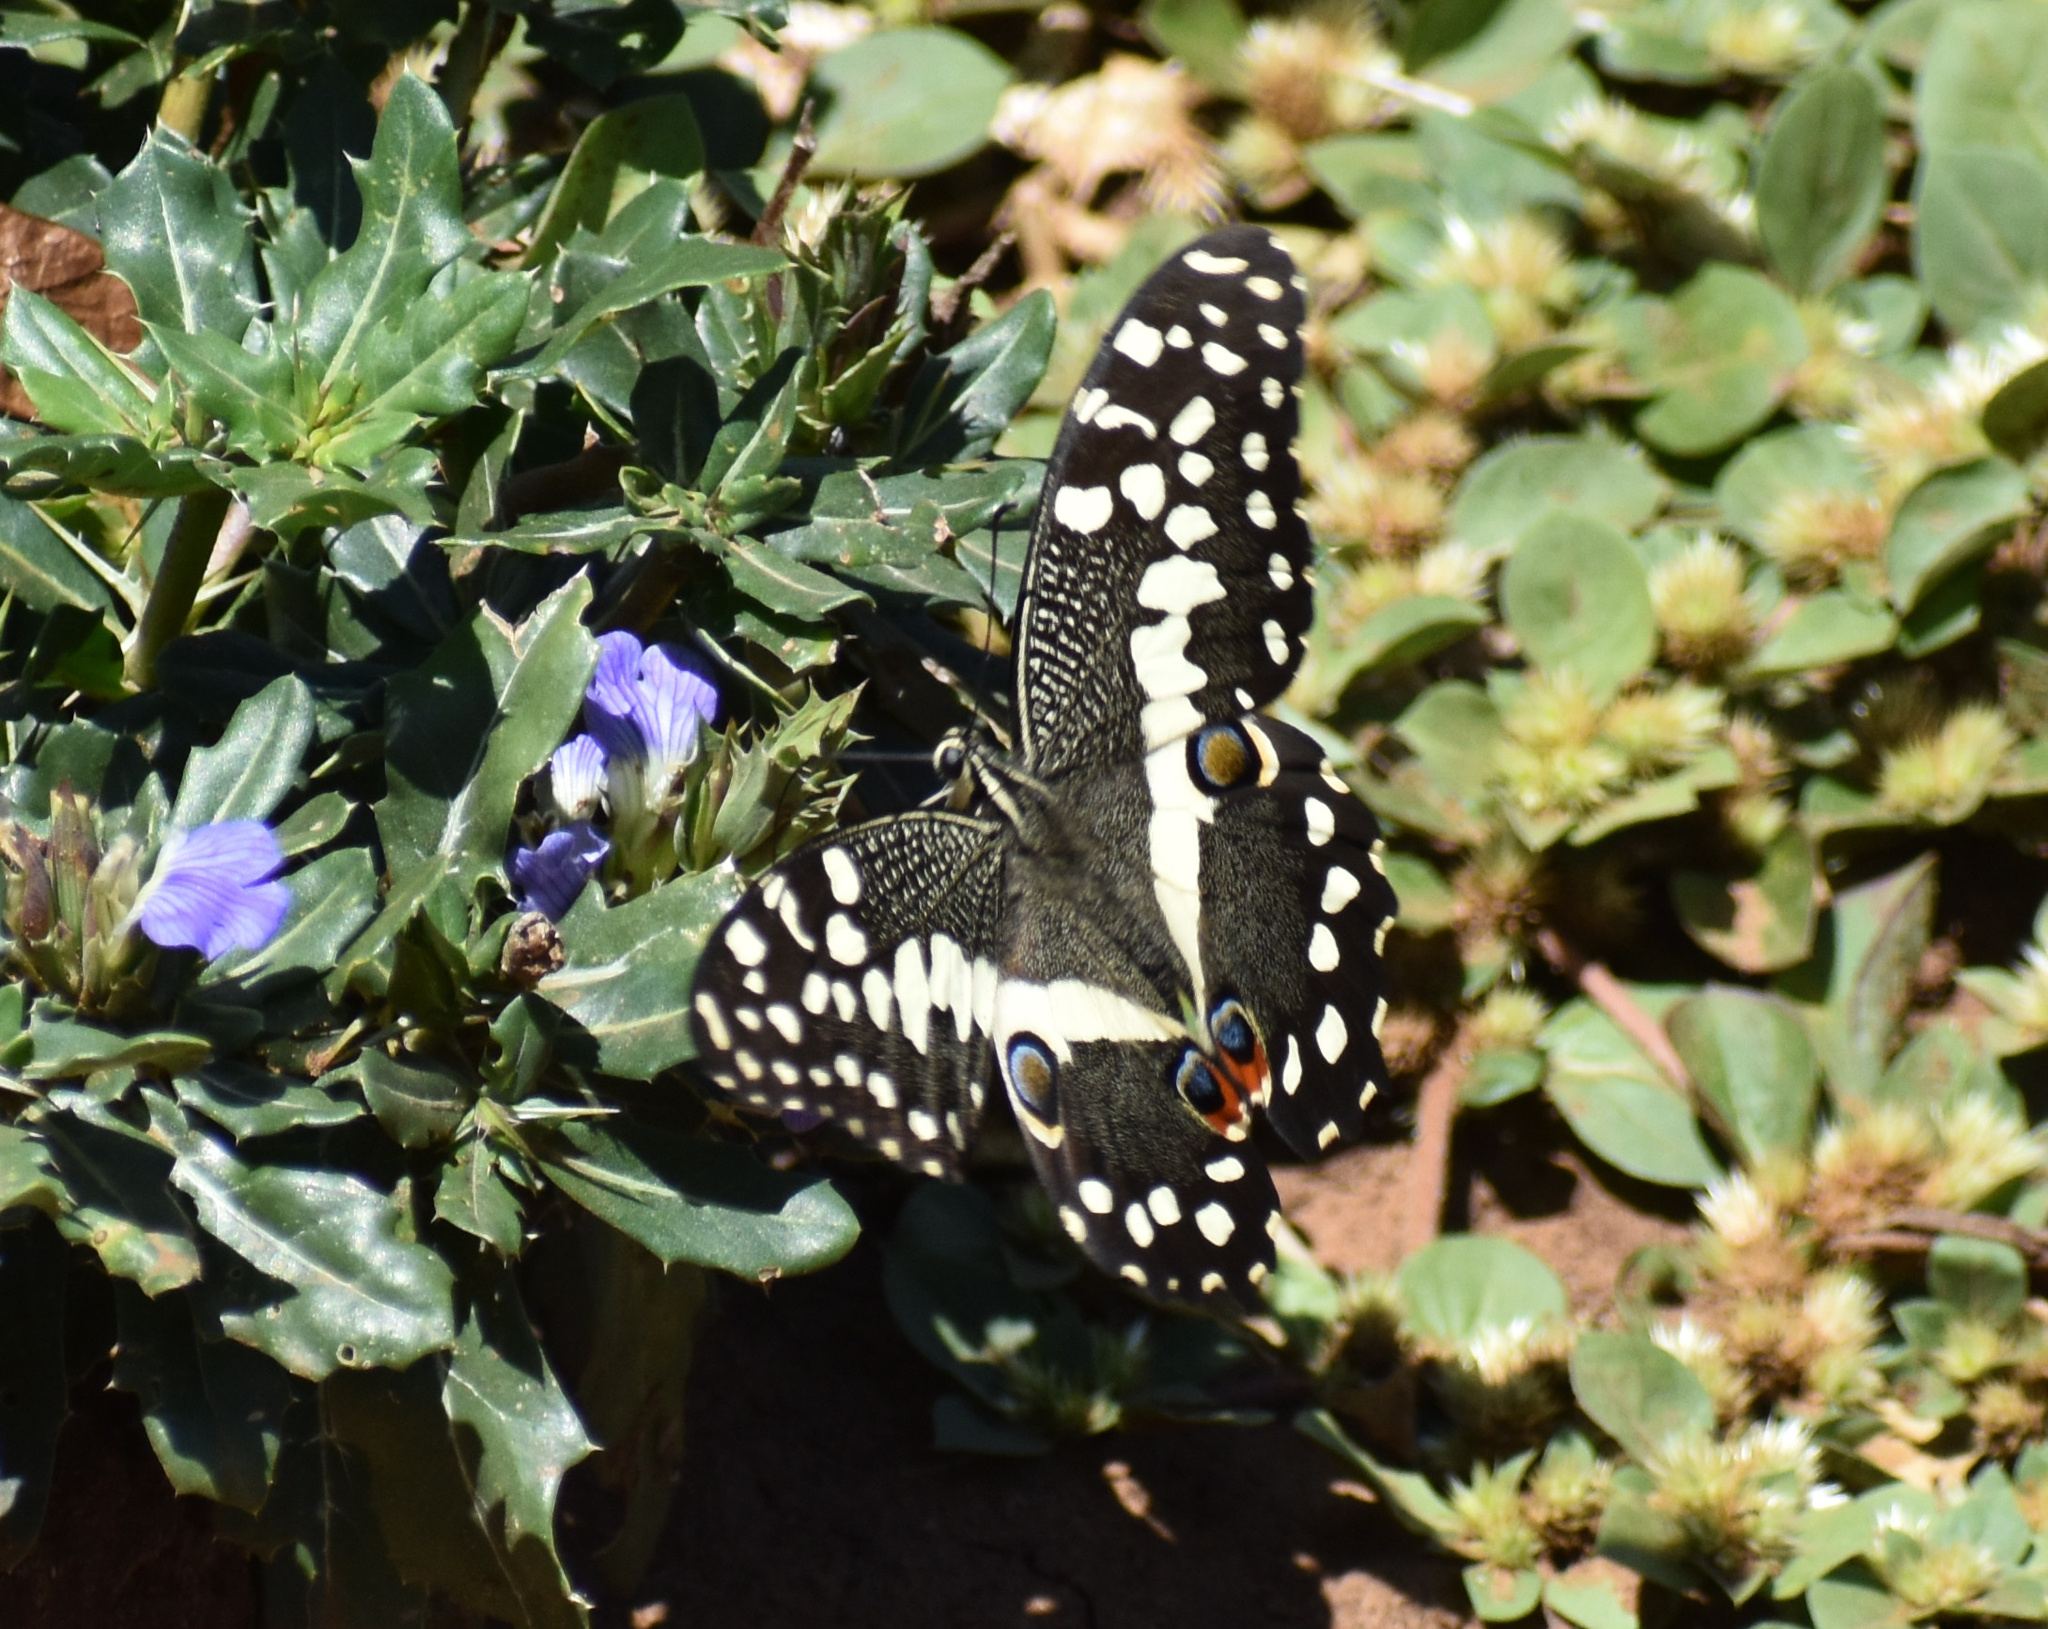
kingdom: Animalia
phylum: Arthropoda
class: Insecta
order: Lepidoptera
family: Papilionidae
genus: Papilio
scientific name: Papilio demodocus
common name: Christmas butterfly
